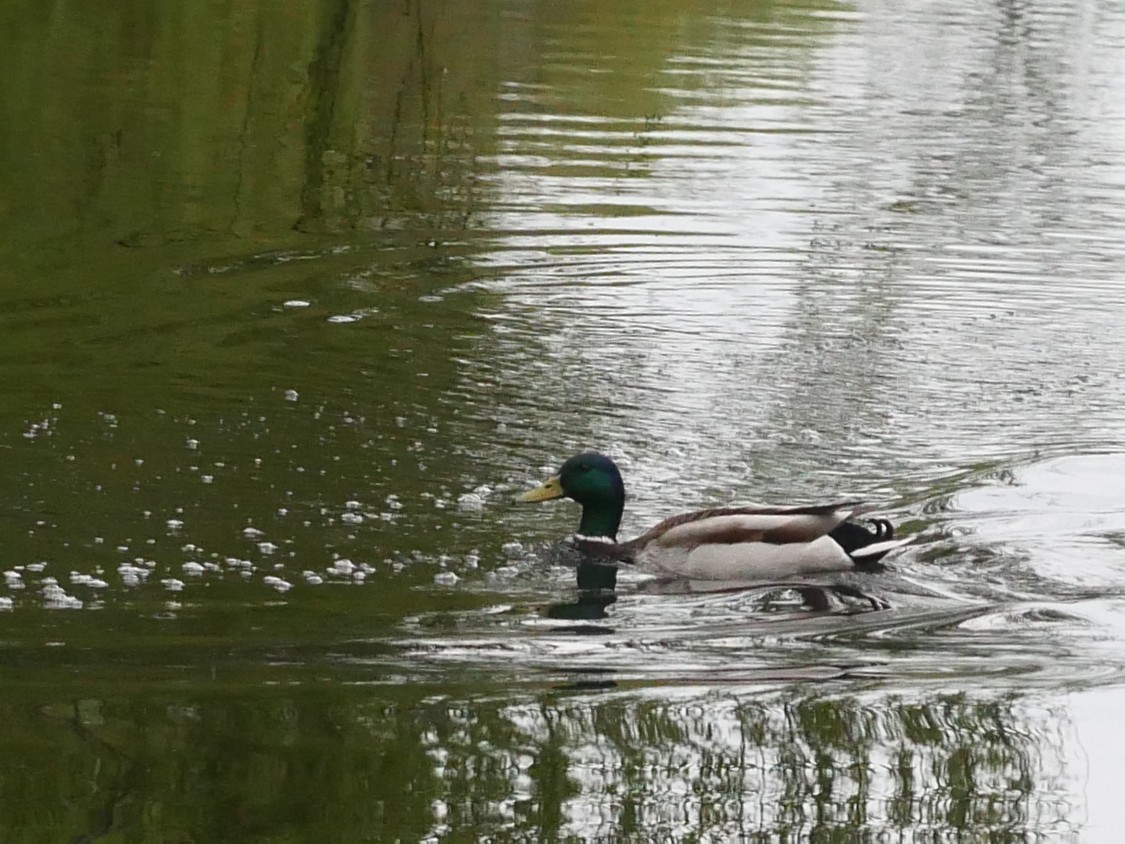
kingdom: Animalia
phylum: Chordata
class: Aves
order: Anseriformes
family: Anatidae
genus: Anas
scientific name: Anas platyrhynchos
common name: Mallard
